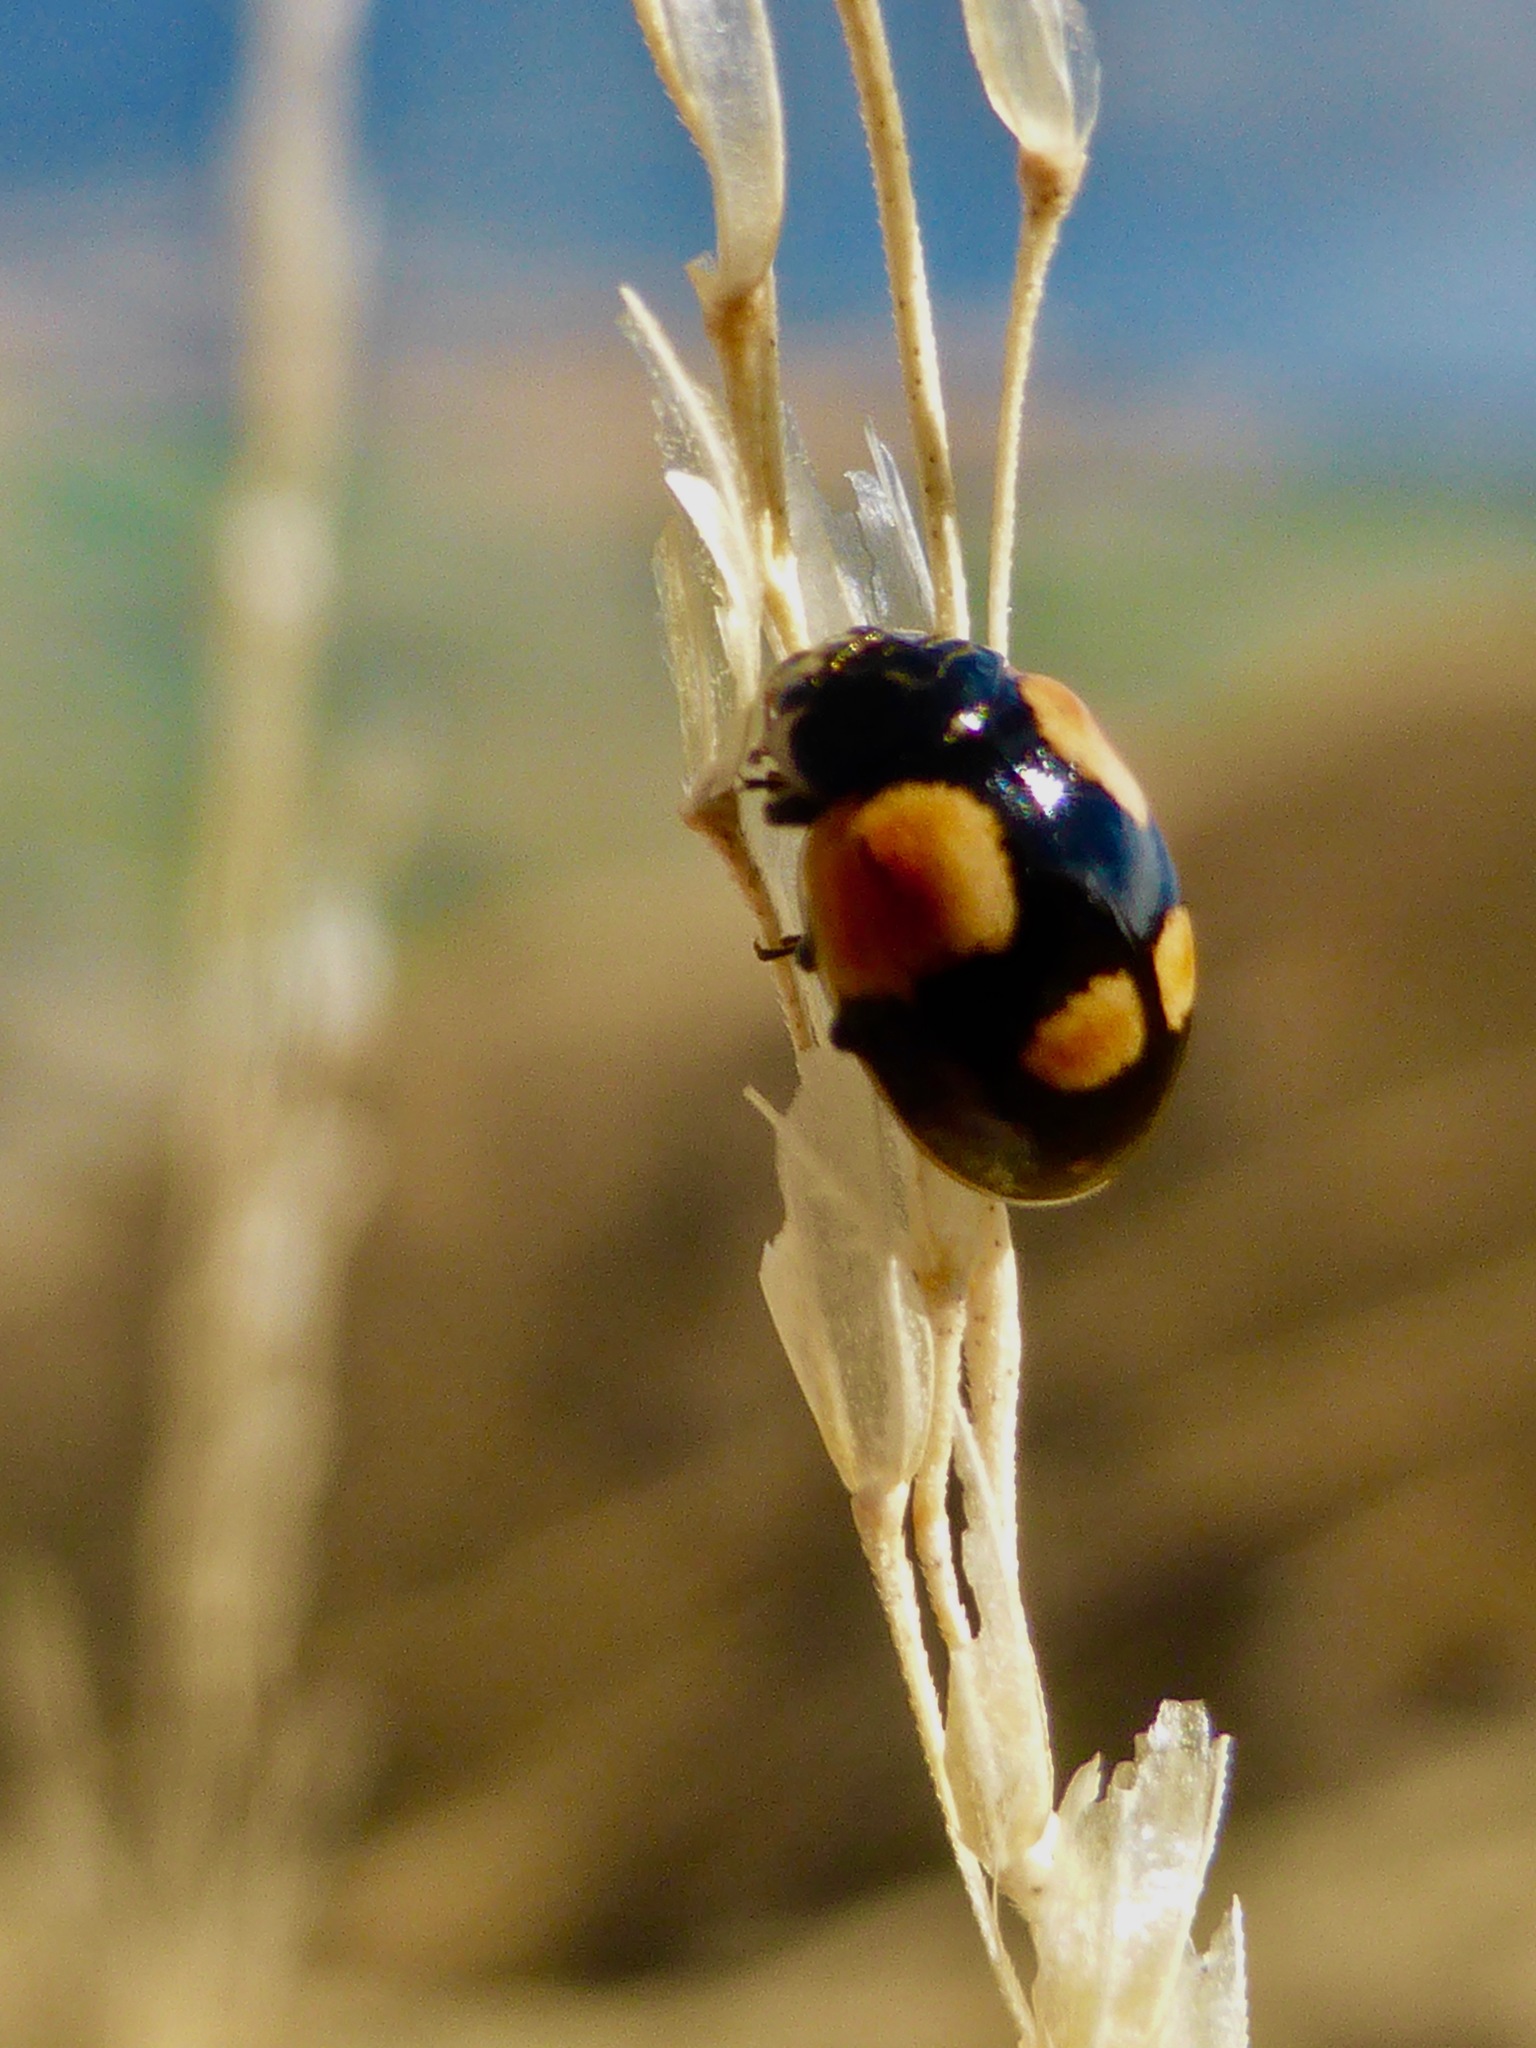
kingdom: Animalia
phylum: Arthropoda
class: Insecta
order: Coleoptera
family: Coccinellidae
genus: Adalia
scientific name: Adalia bipunctata
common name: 2-spot ladybird
